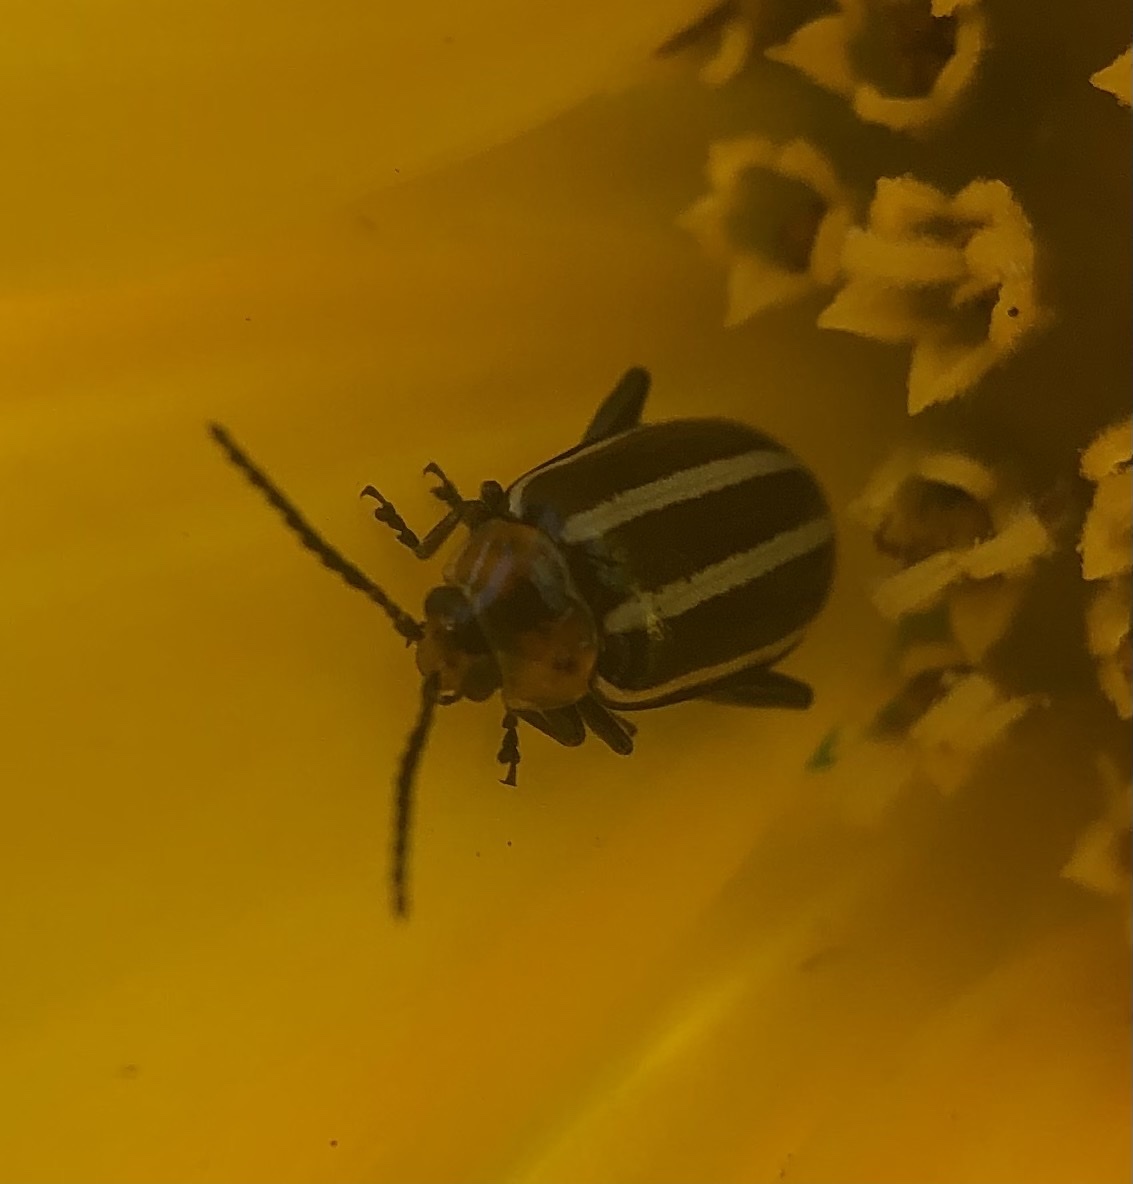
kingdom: Animalia
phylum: Arthropoda
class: Insecta
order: Coleoptera
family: Chrysomelidae
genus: Disonycha
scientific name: Disonycha glabrata
